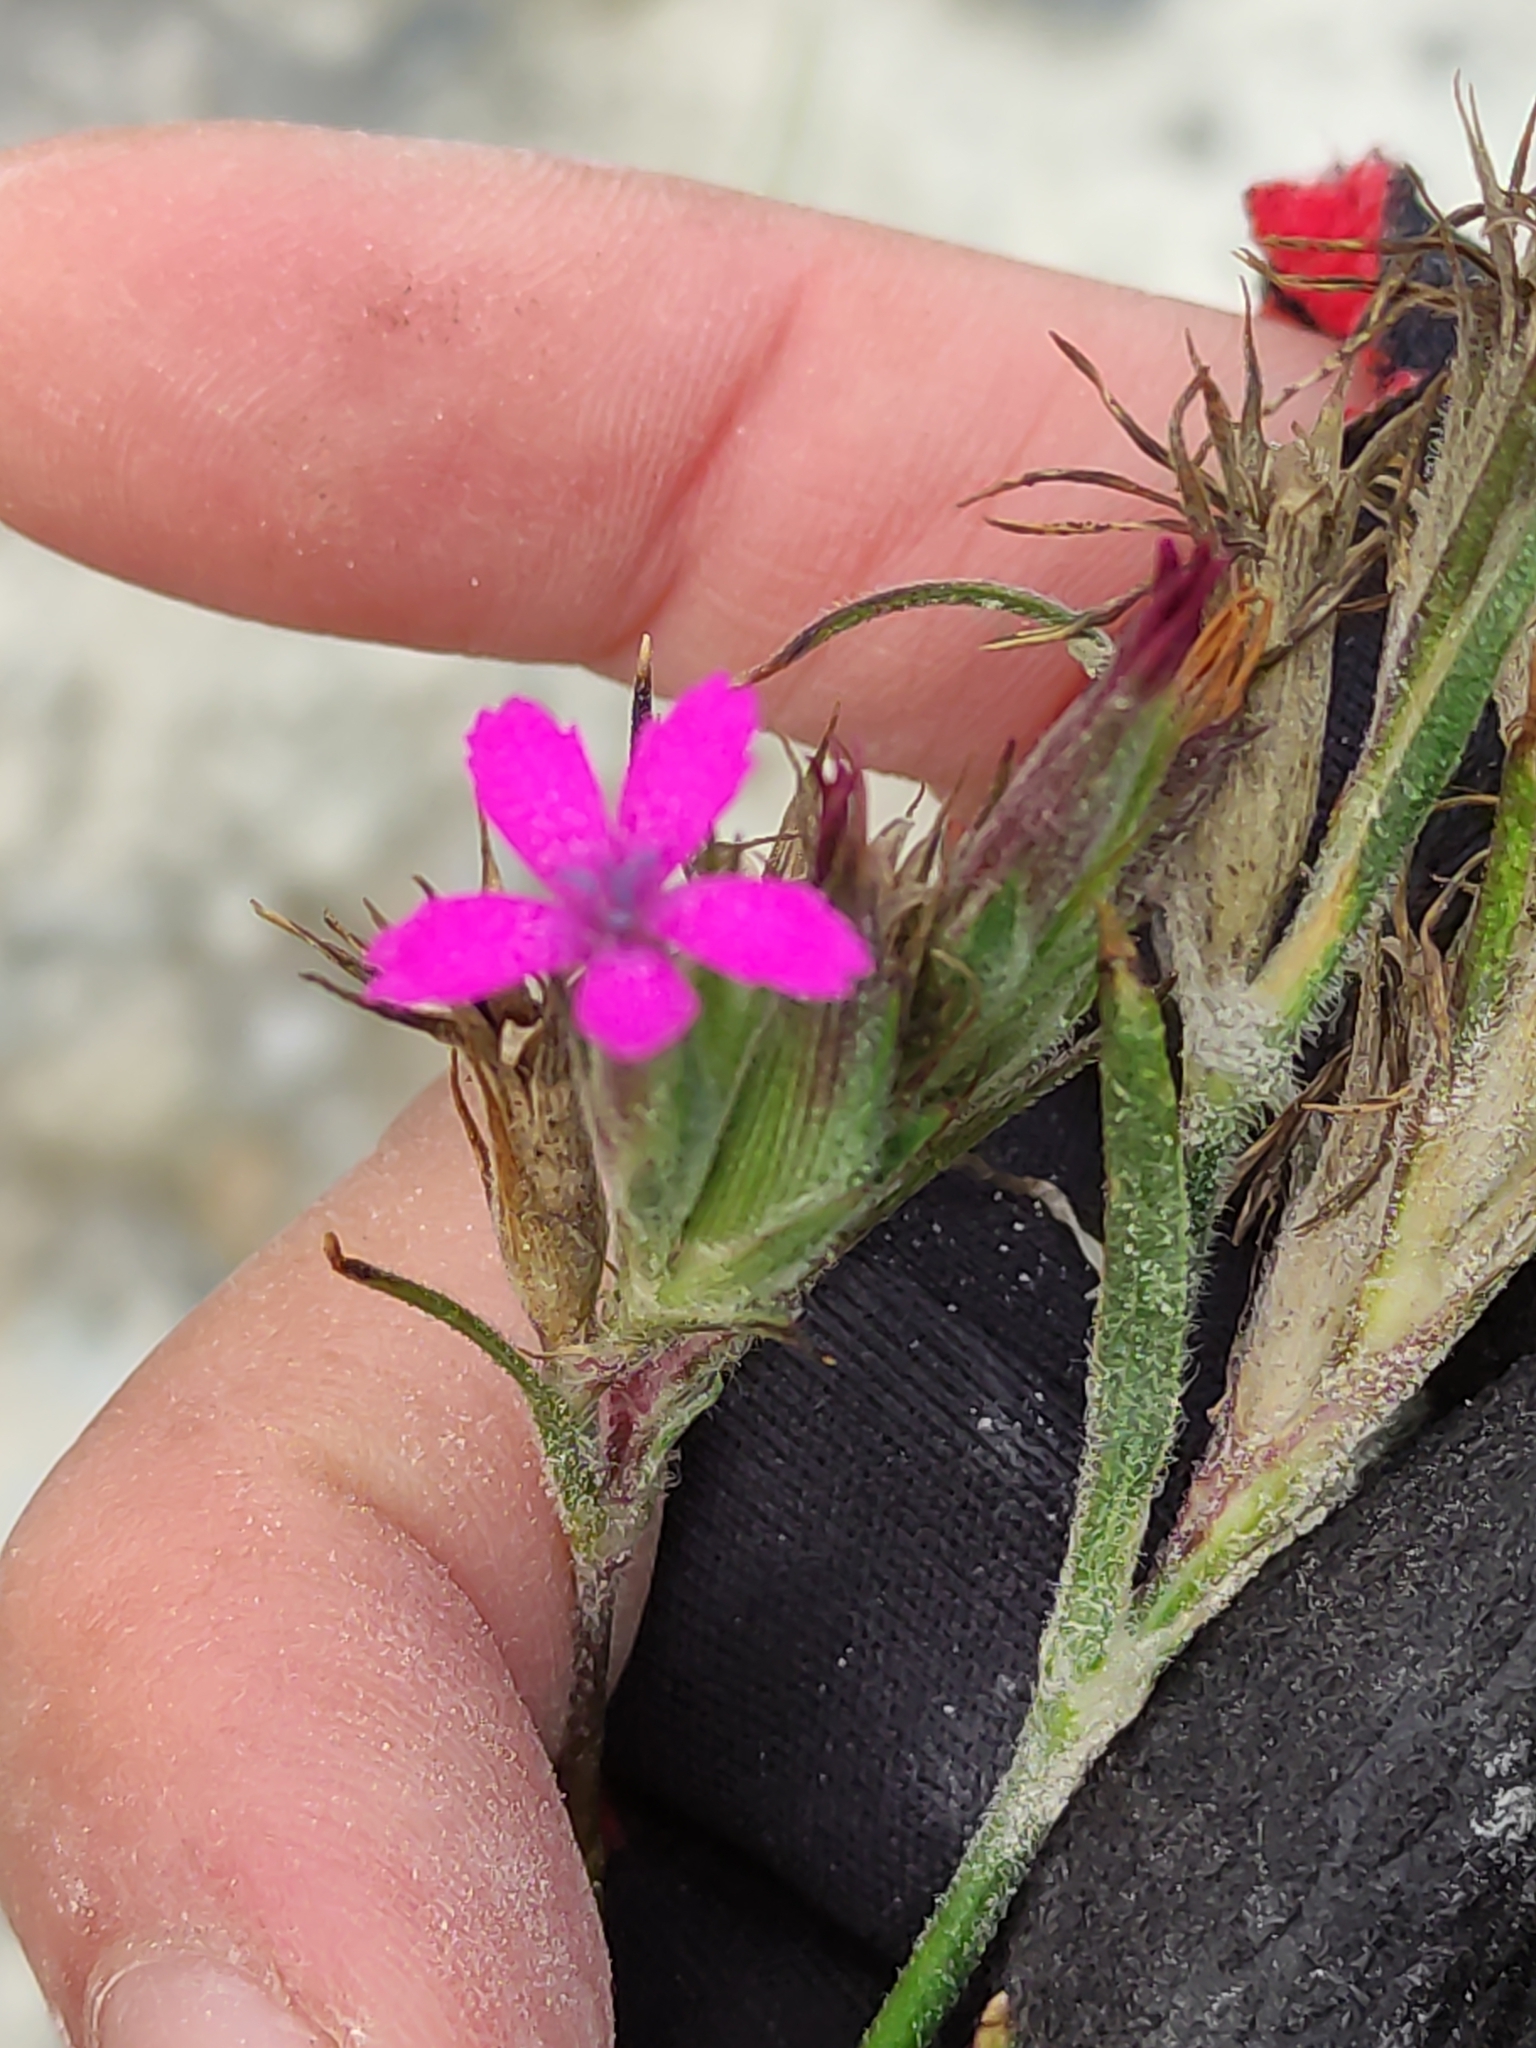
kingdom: Plantae
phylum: Tracheophyta
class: Magnoliopsida
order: Caryophyllales
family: Caryophyllaceae
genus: Dianthus
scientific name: Dianthus armeria
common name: Deptford pink
